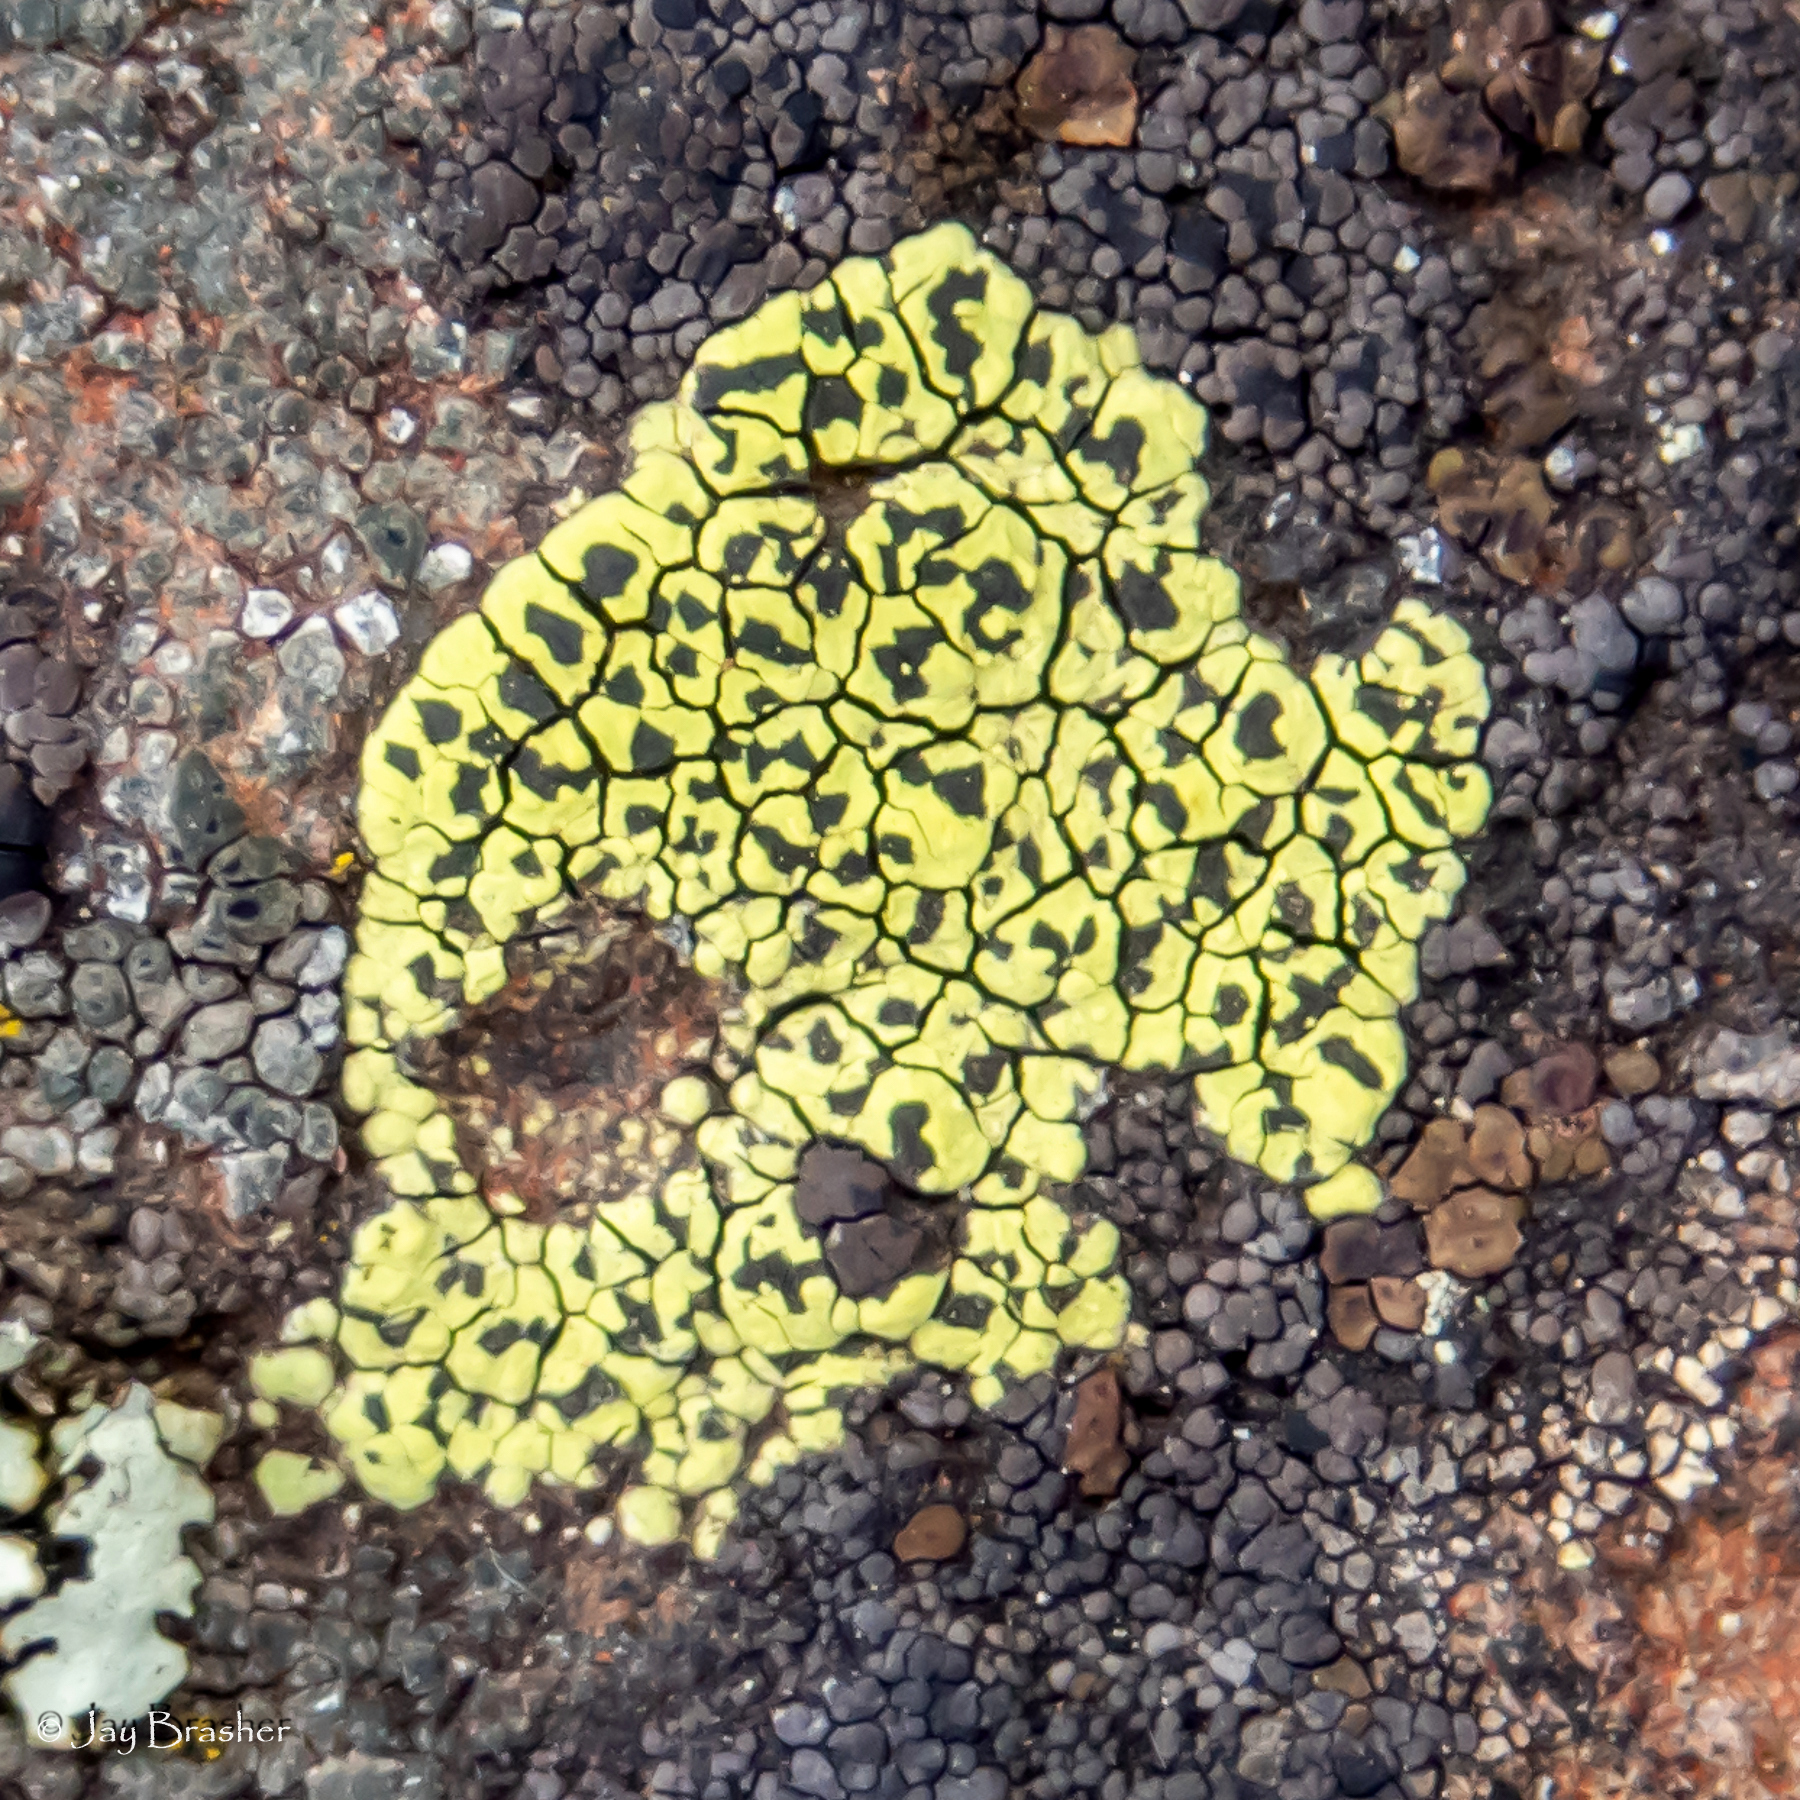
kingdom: Fungi
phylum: Ascomycota
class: Lecanoromycetes
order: Rhizocarpales
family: Rhizocarpaceae
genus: Rhizocarpon
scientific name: Rhizocarpon geographicum
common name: Yellow map lichen
